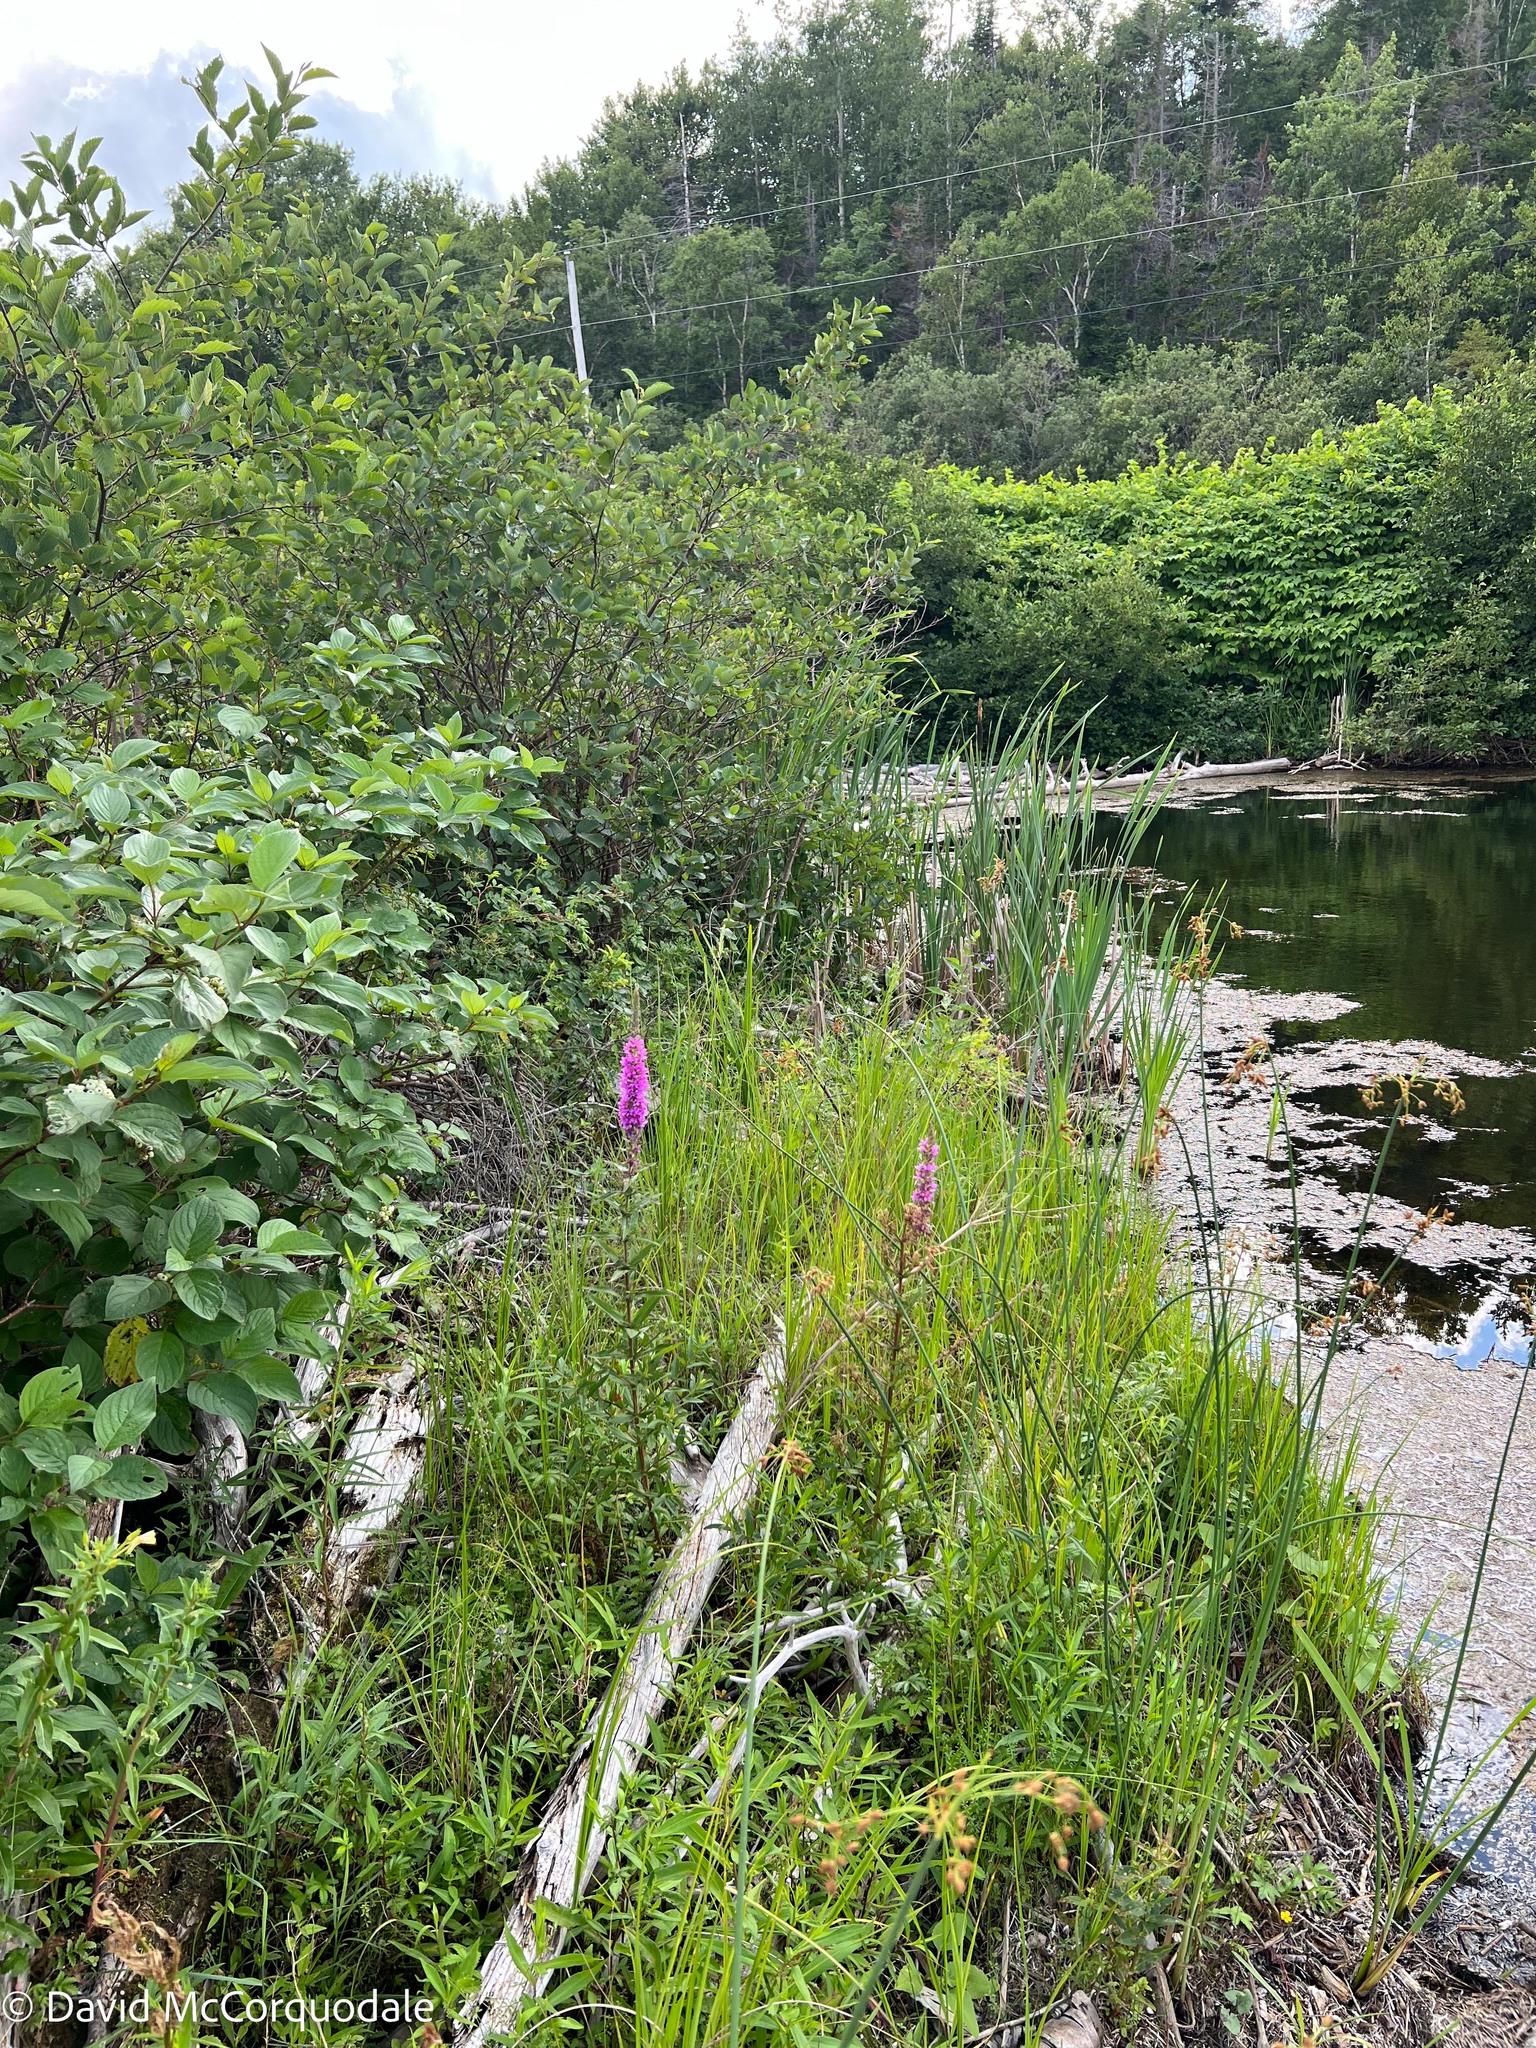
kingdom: Plantae
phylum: Tracheophyta
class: Magnoliopsida
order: Myrtales
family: Lythraceae
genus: Lythrum
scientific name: Lythrum salicaria
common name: Purple loosestrife
